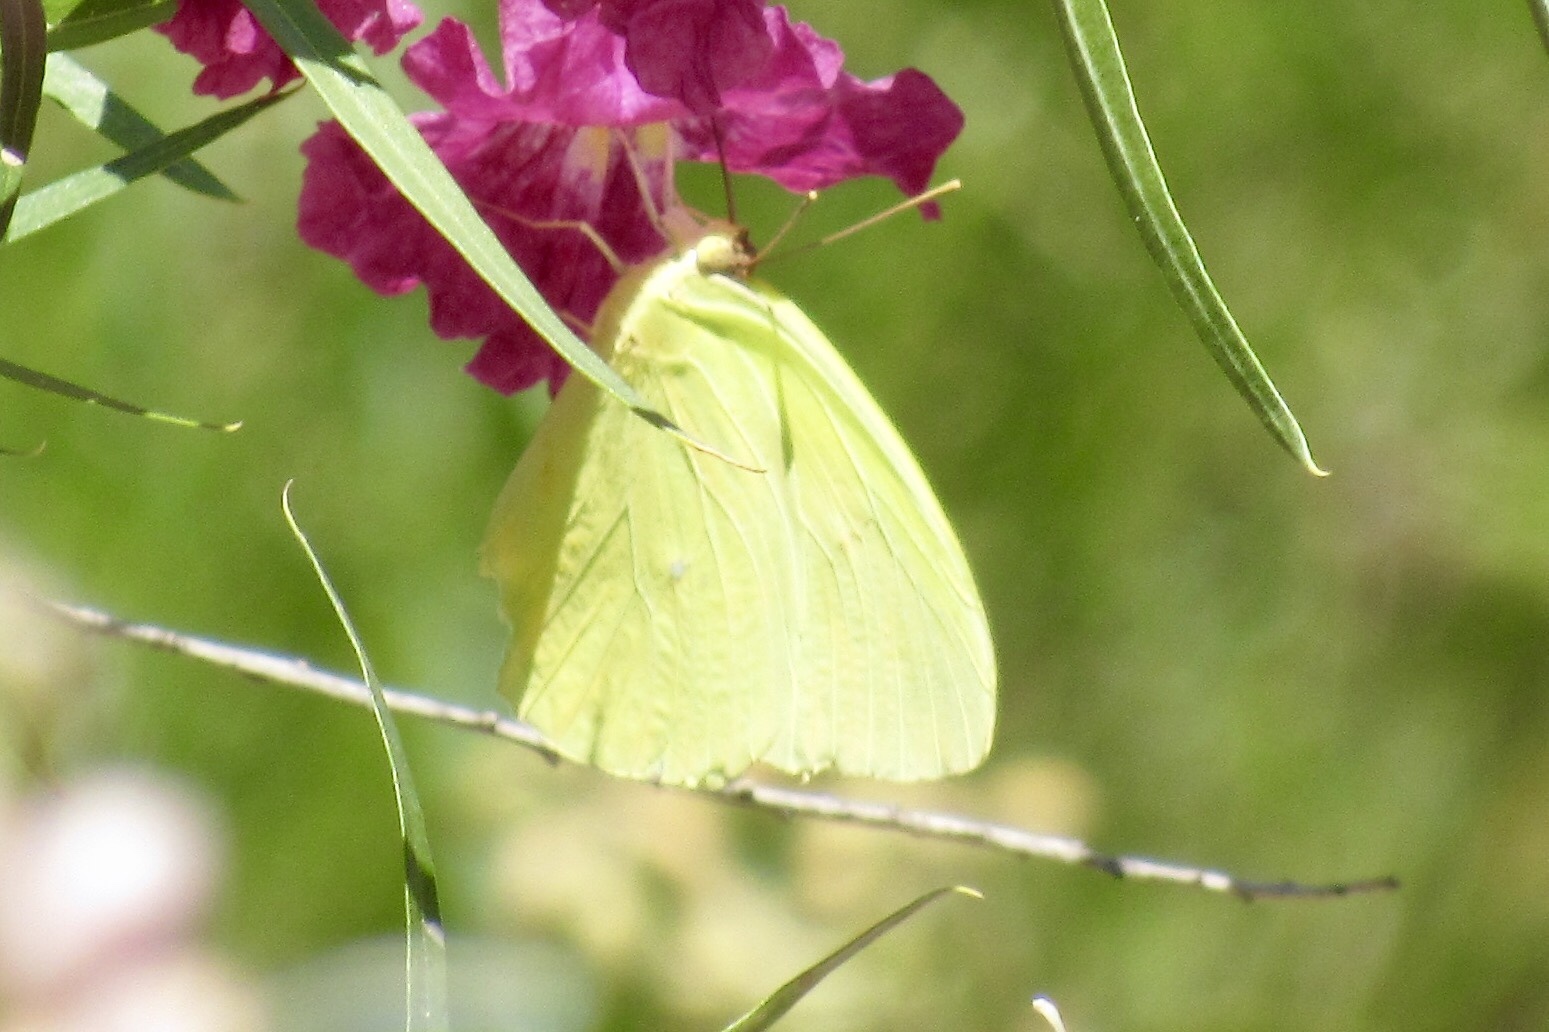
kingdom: Animalia
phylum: Arthropoda
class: Insecta
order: Lepidoptera
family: Pieridae
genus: Kricogonia
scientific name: Kricogonia lyside
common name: Guayacan sulphur,
